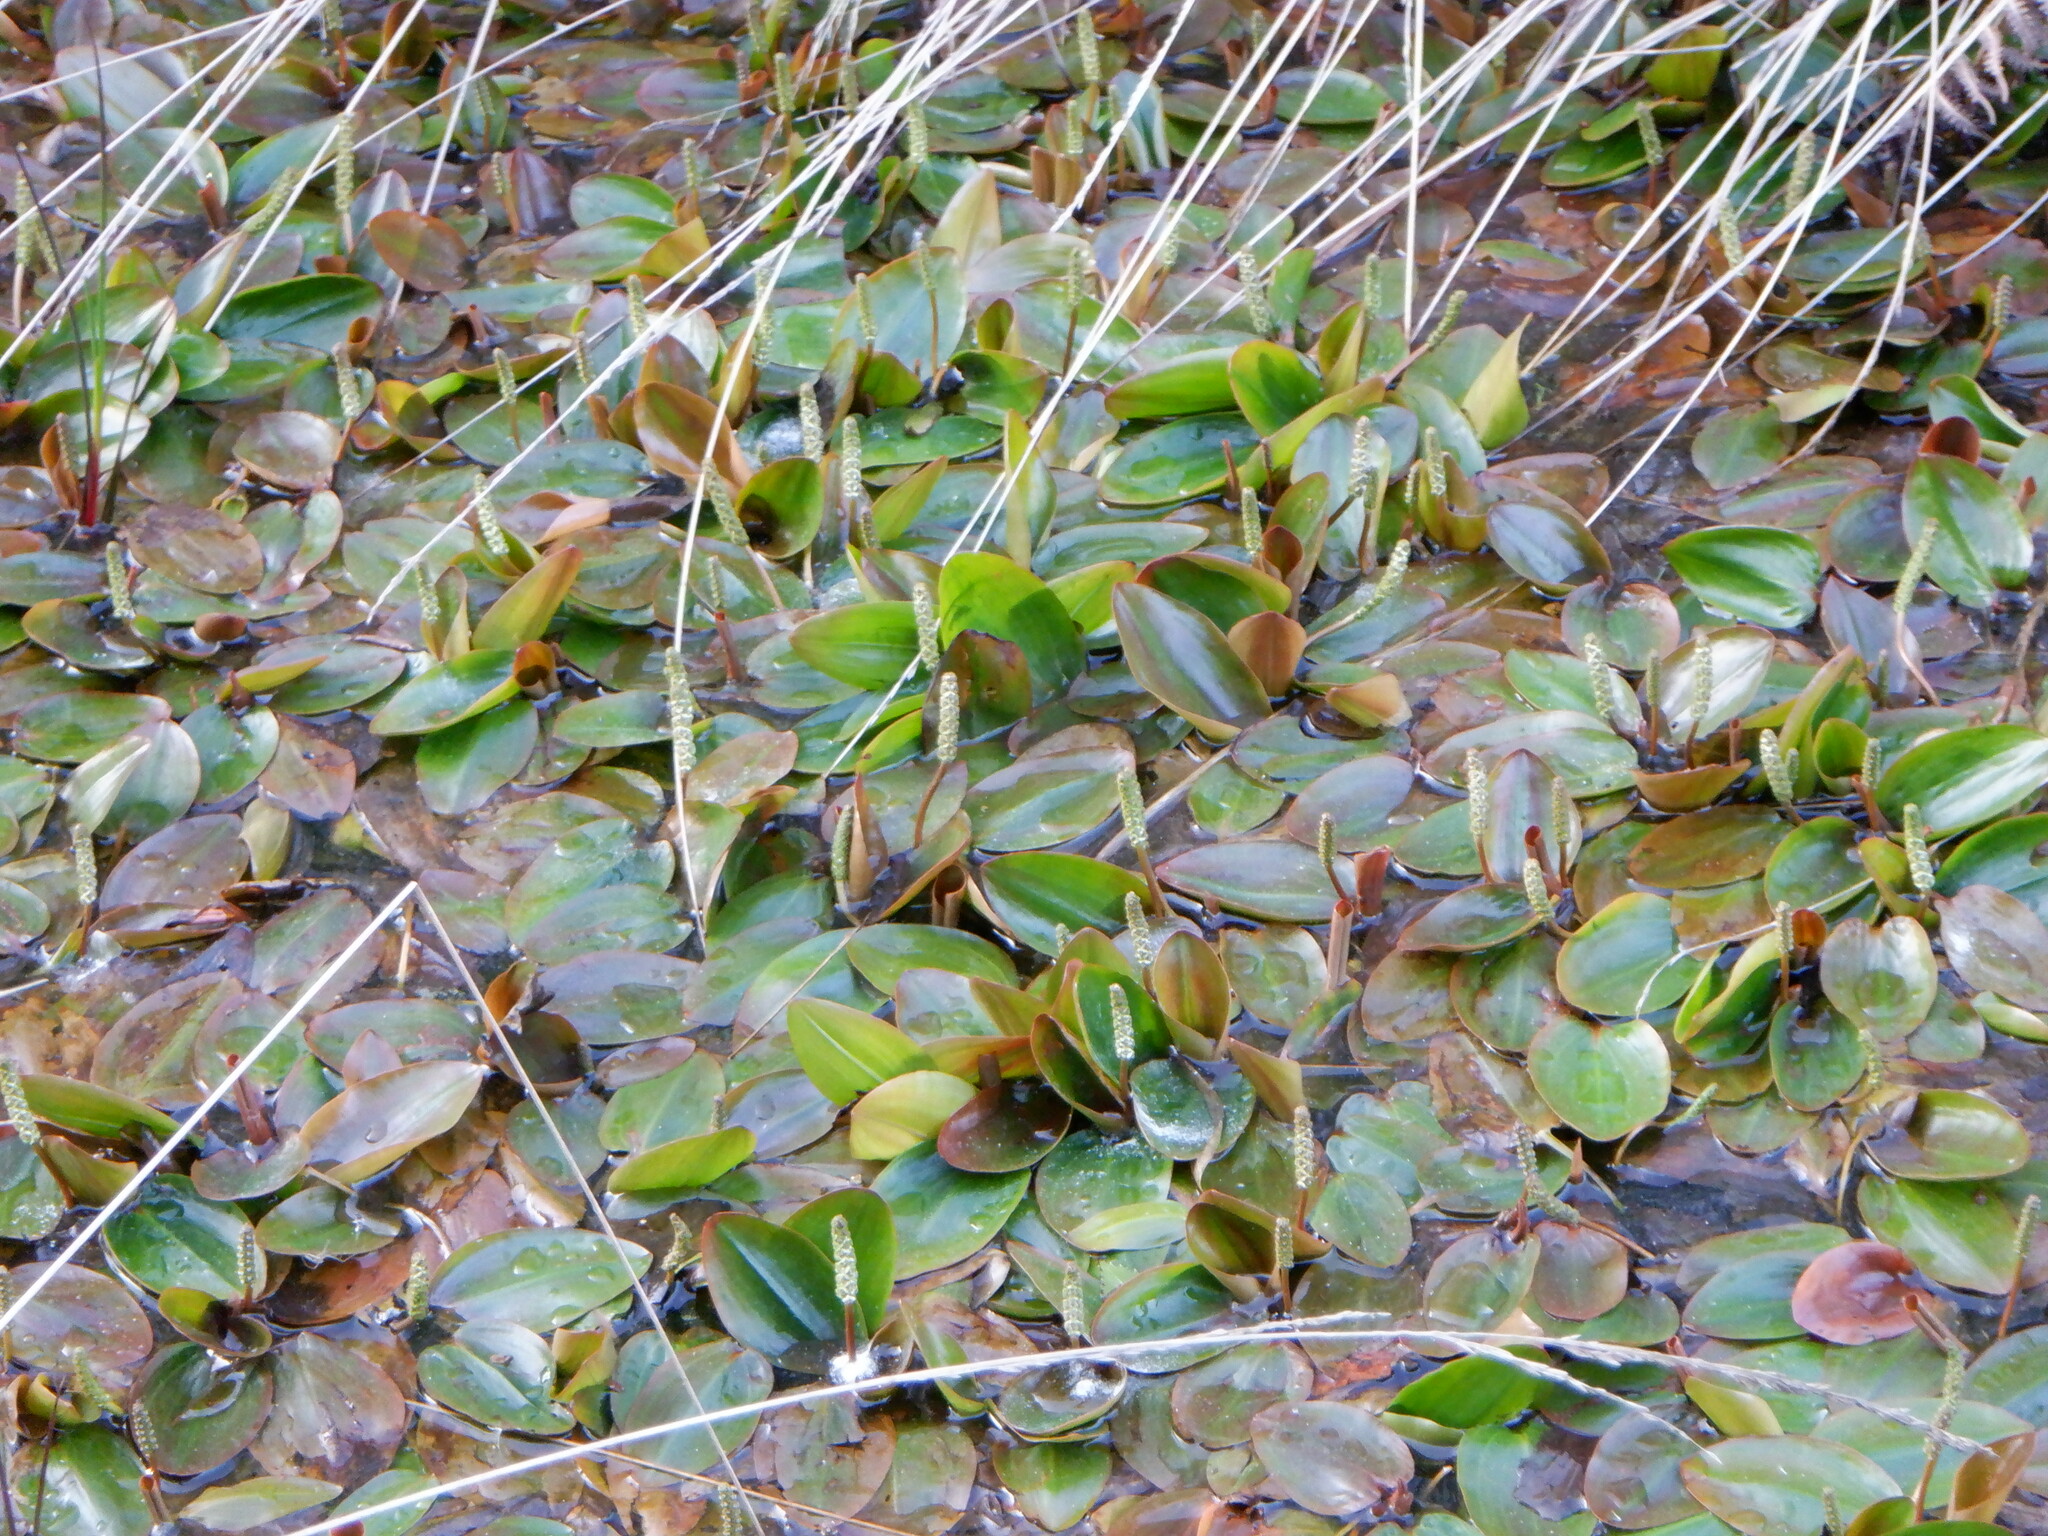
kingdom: Plantae
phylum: Tracheophyta
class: Liliopsida
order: Alismatales
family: Potamogetonaceae
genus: Potamogeton
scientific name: Potamogeton polygonifolius
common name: Bog pondweed
